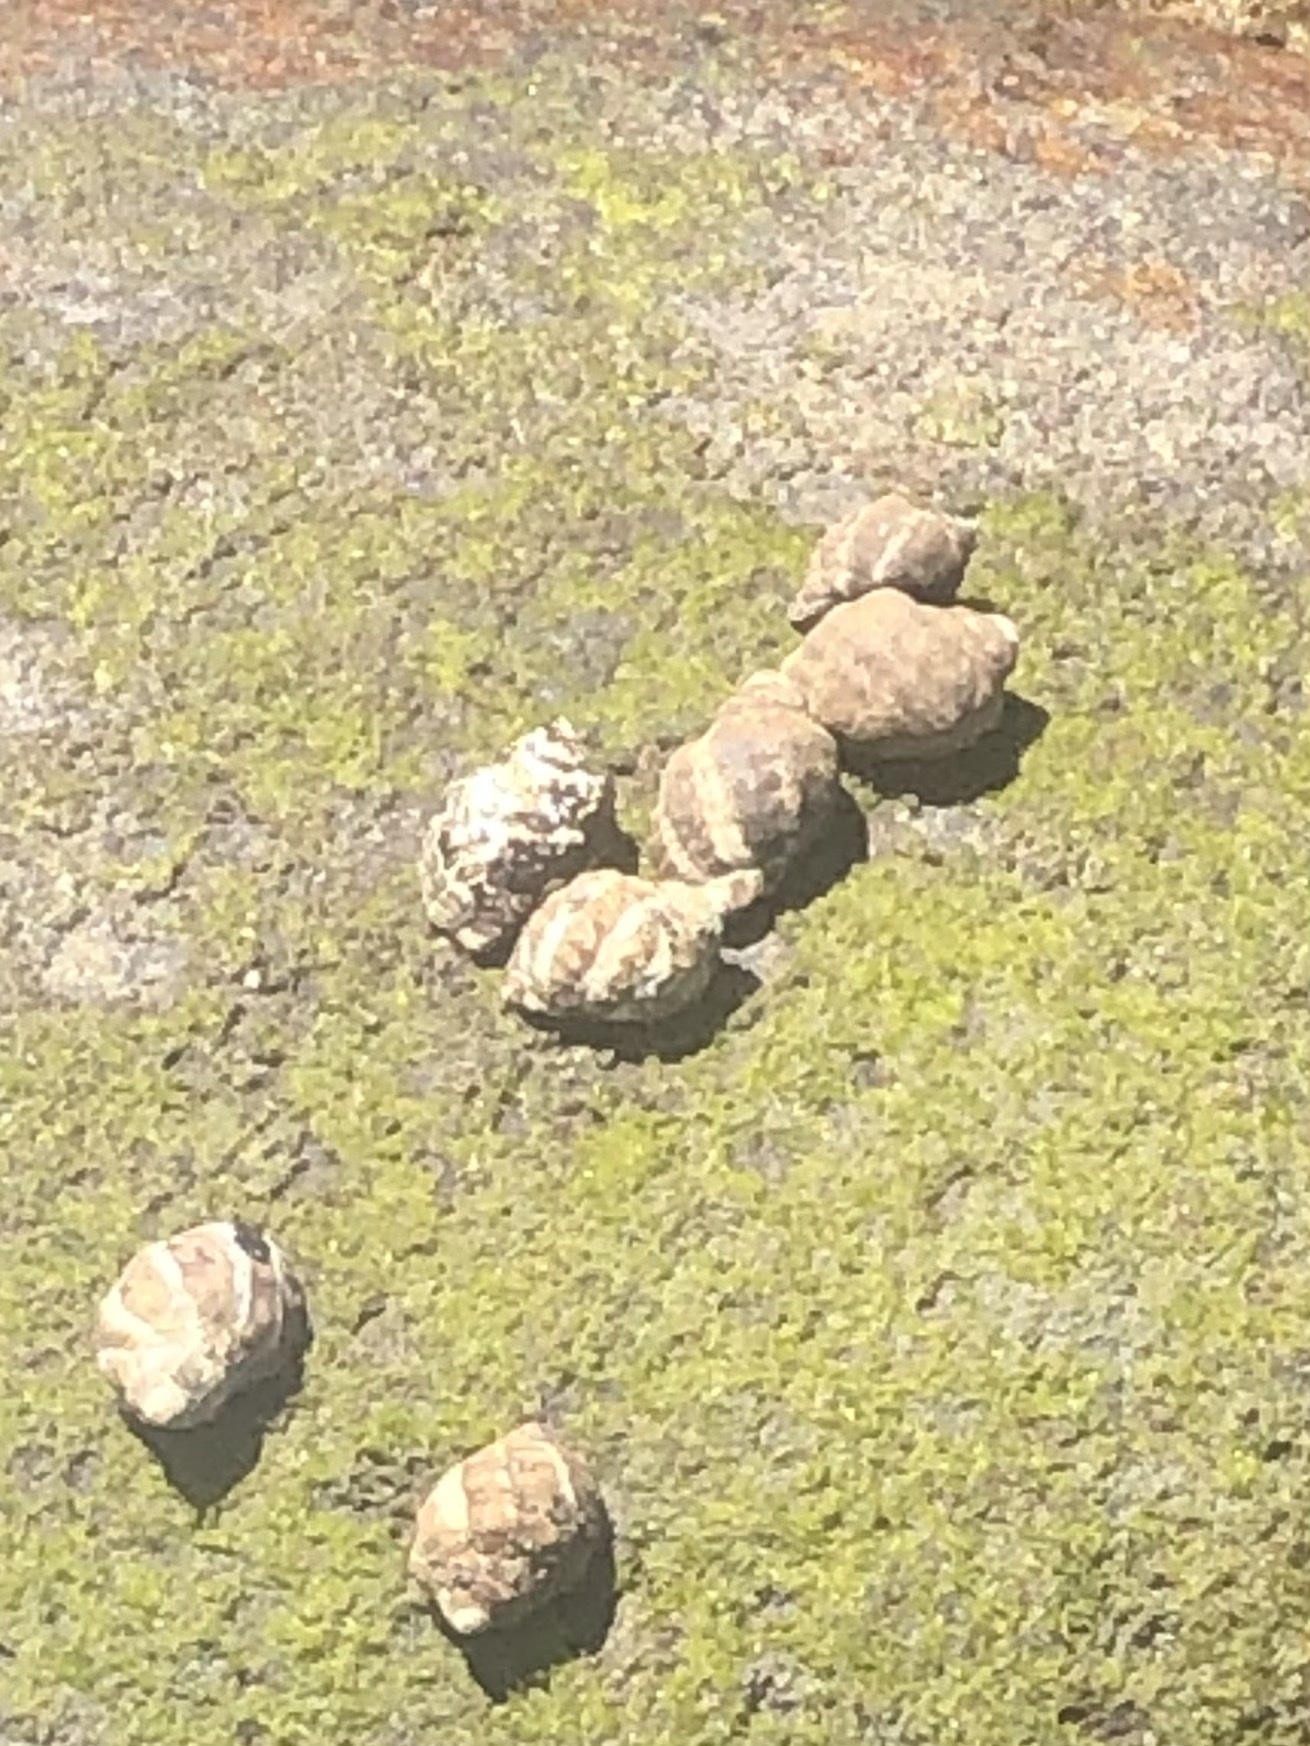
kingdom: Animalia
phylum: Mollusca
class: Gastropoda
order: Neogastropoda
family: Muricidae
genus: Mexacanthina
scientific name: Mexacanthina lugubris
